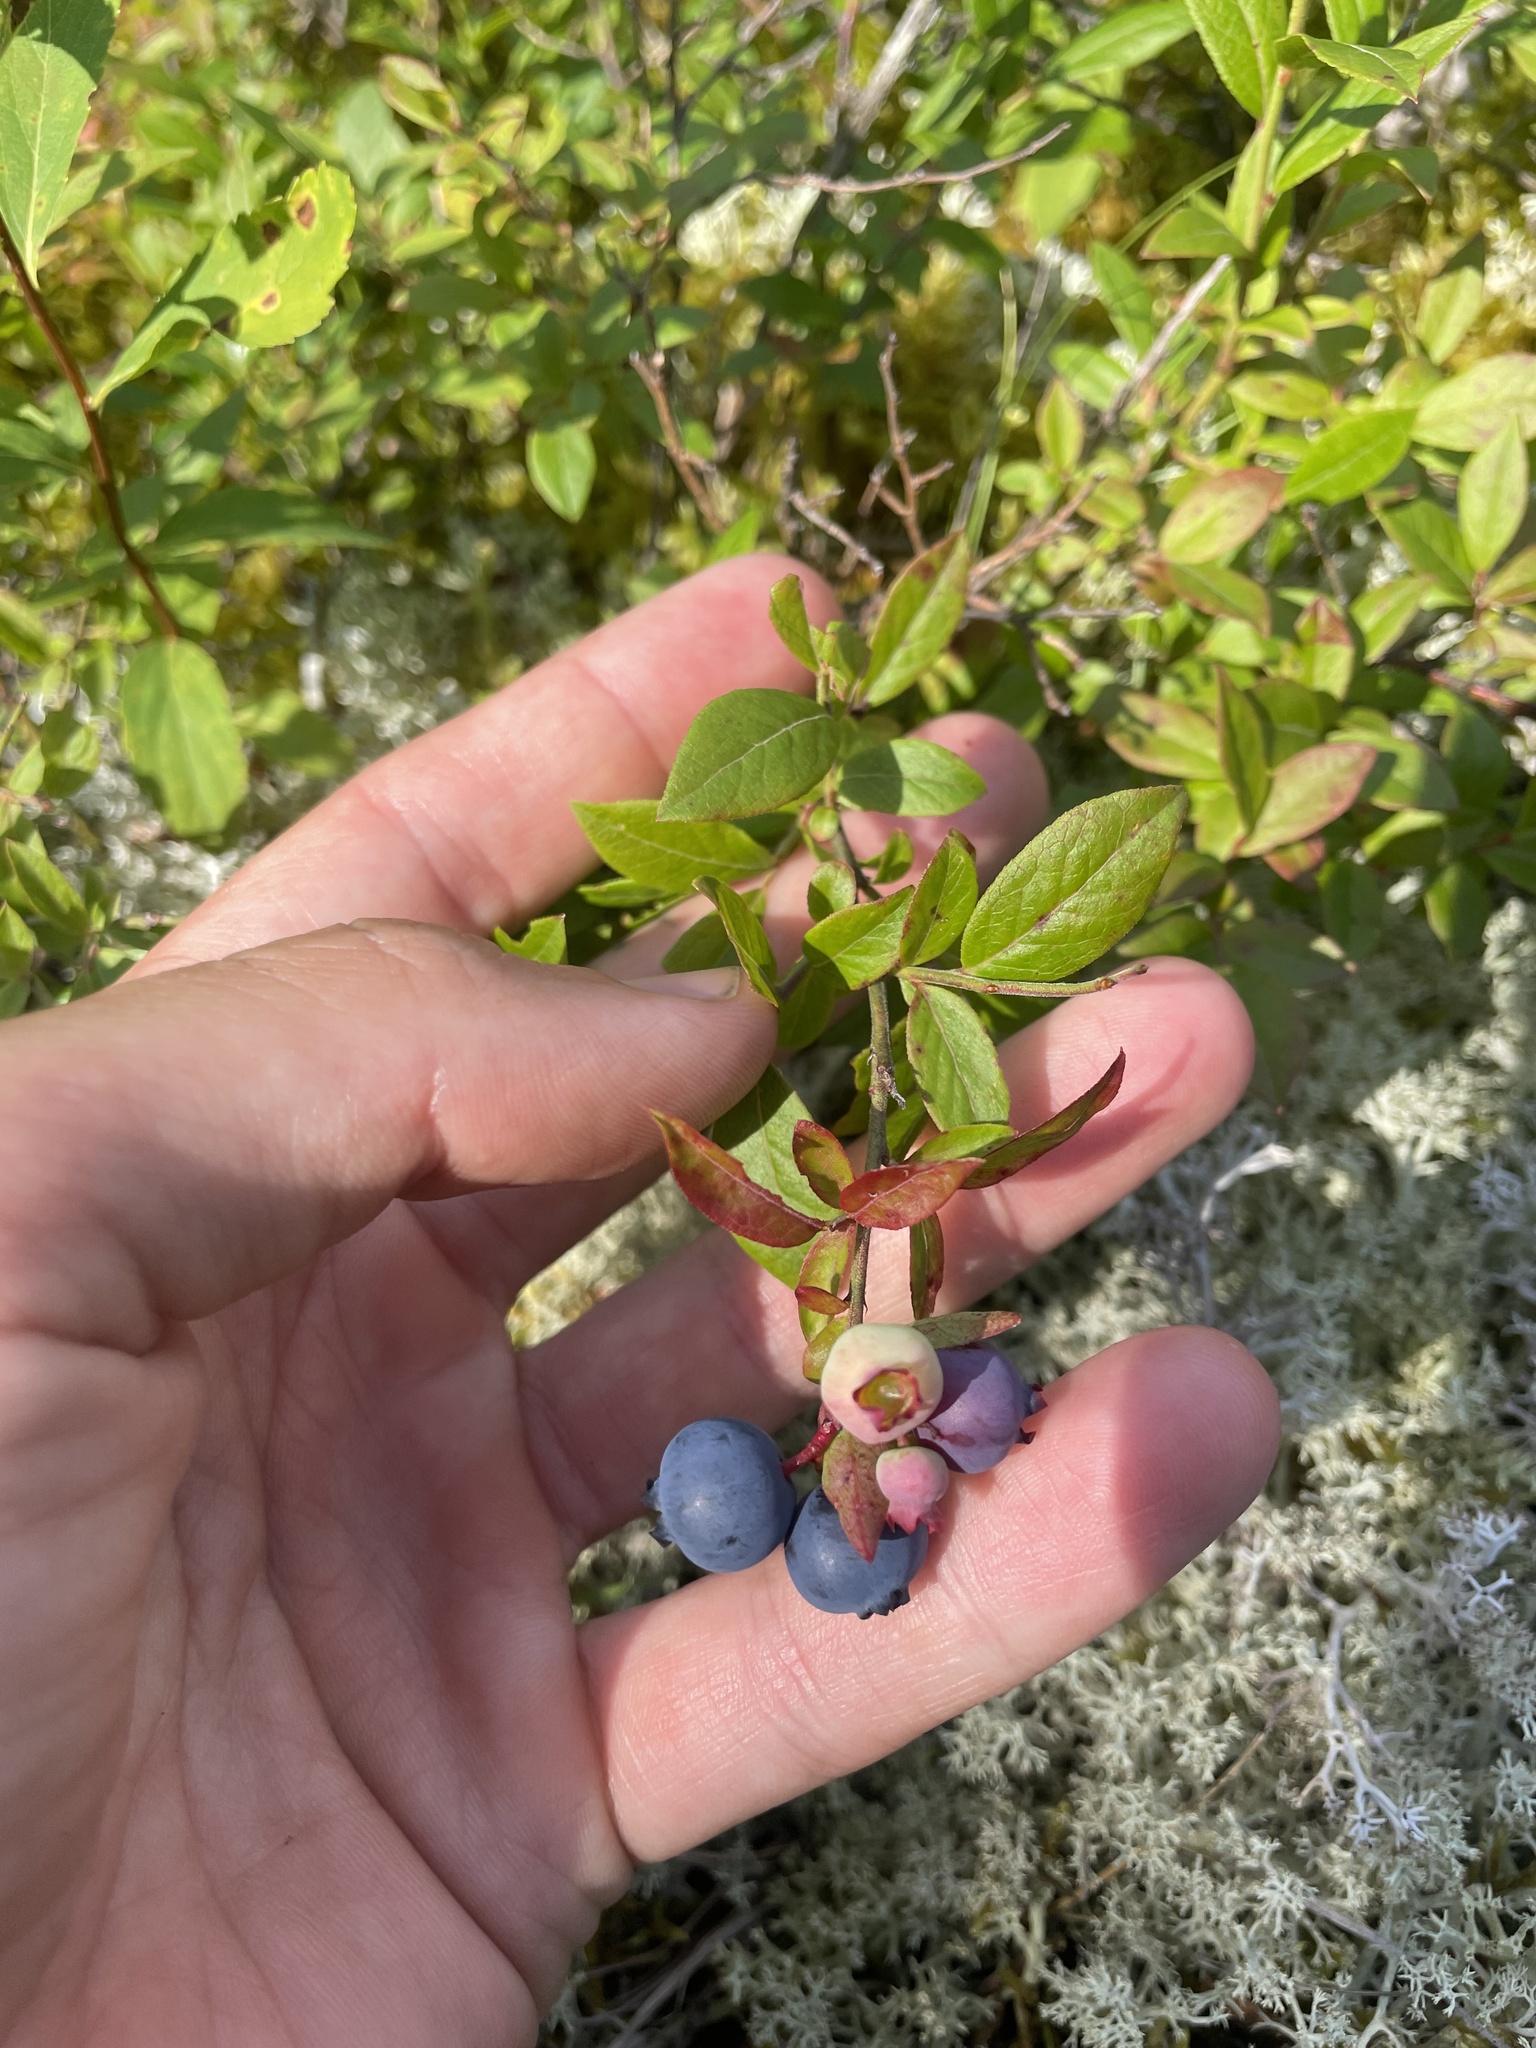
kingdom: Plantae
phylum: Tracheophyta
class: Magnoliopsida
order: Ericales
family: Ericaceae
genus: Vaccinium
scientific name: Vaccinium angustifolium
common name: Early lowbush blueberry
